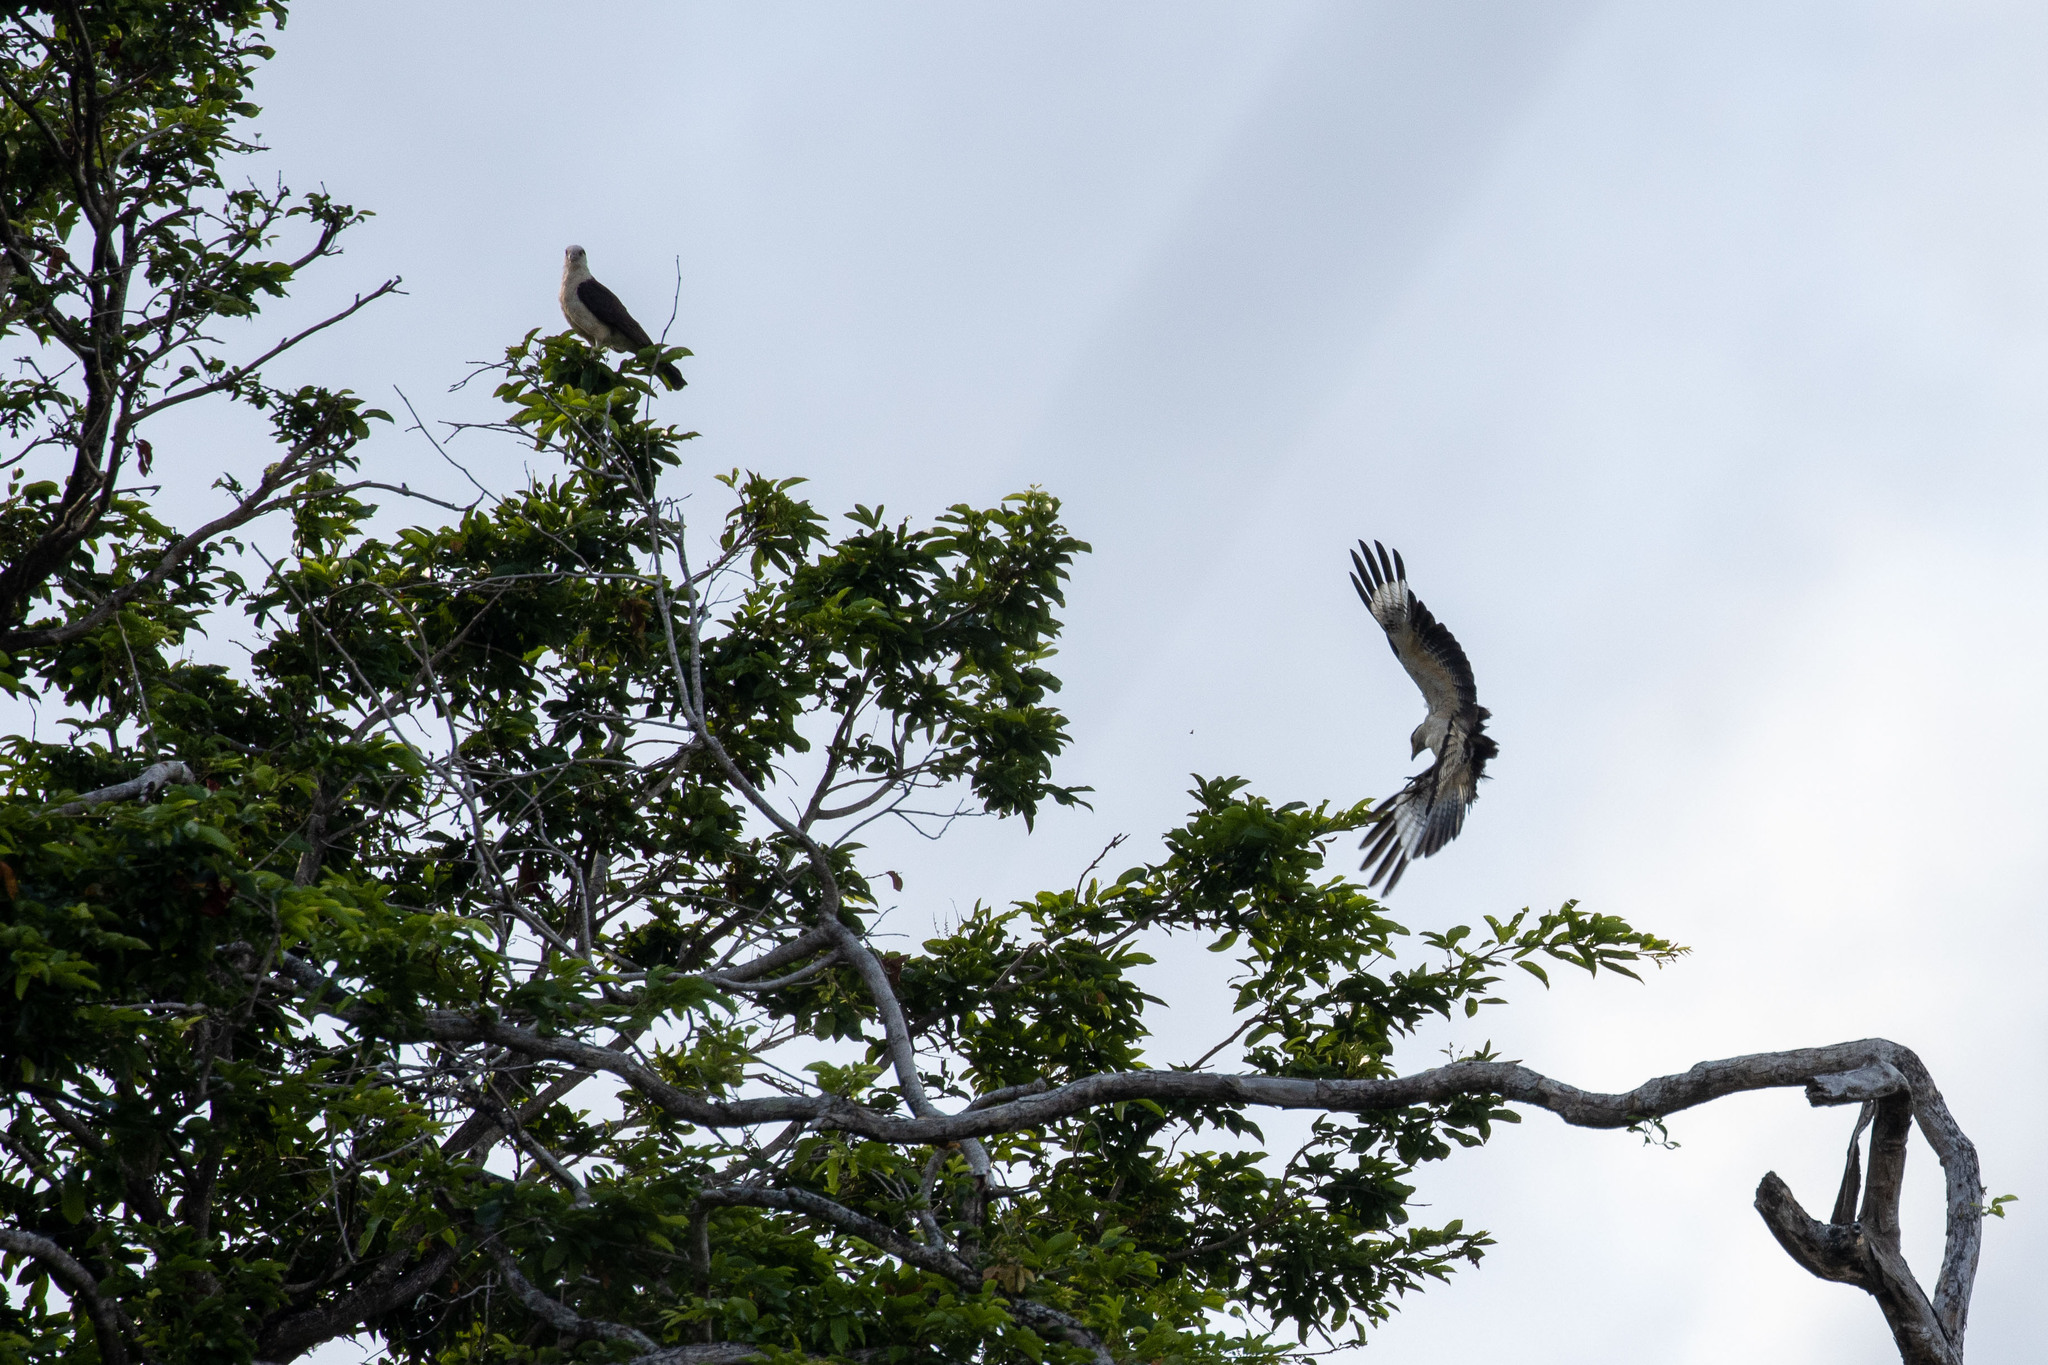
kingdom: Animalia
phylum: Chordata
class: Aves
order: Falconiformes
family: Falconidae
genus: Daptrius
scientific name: Daptrius
